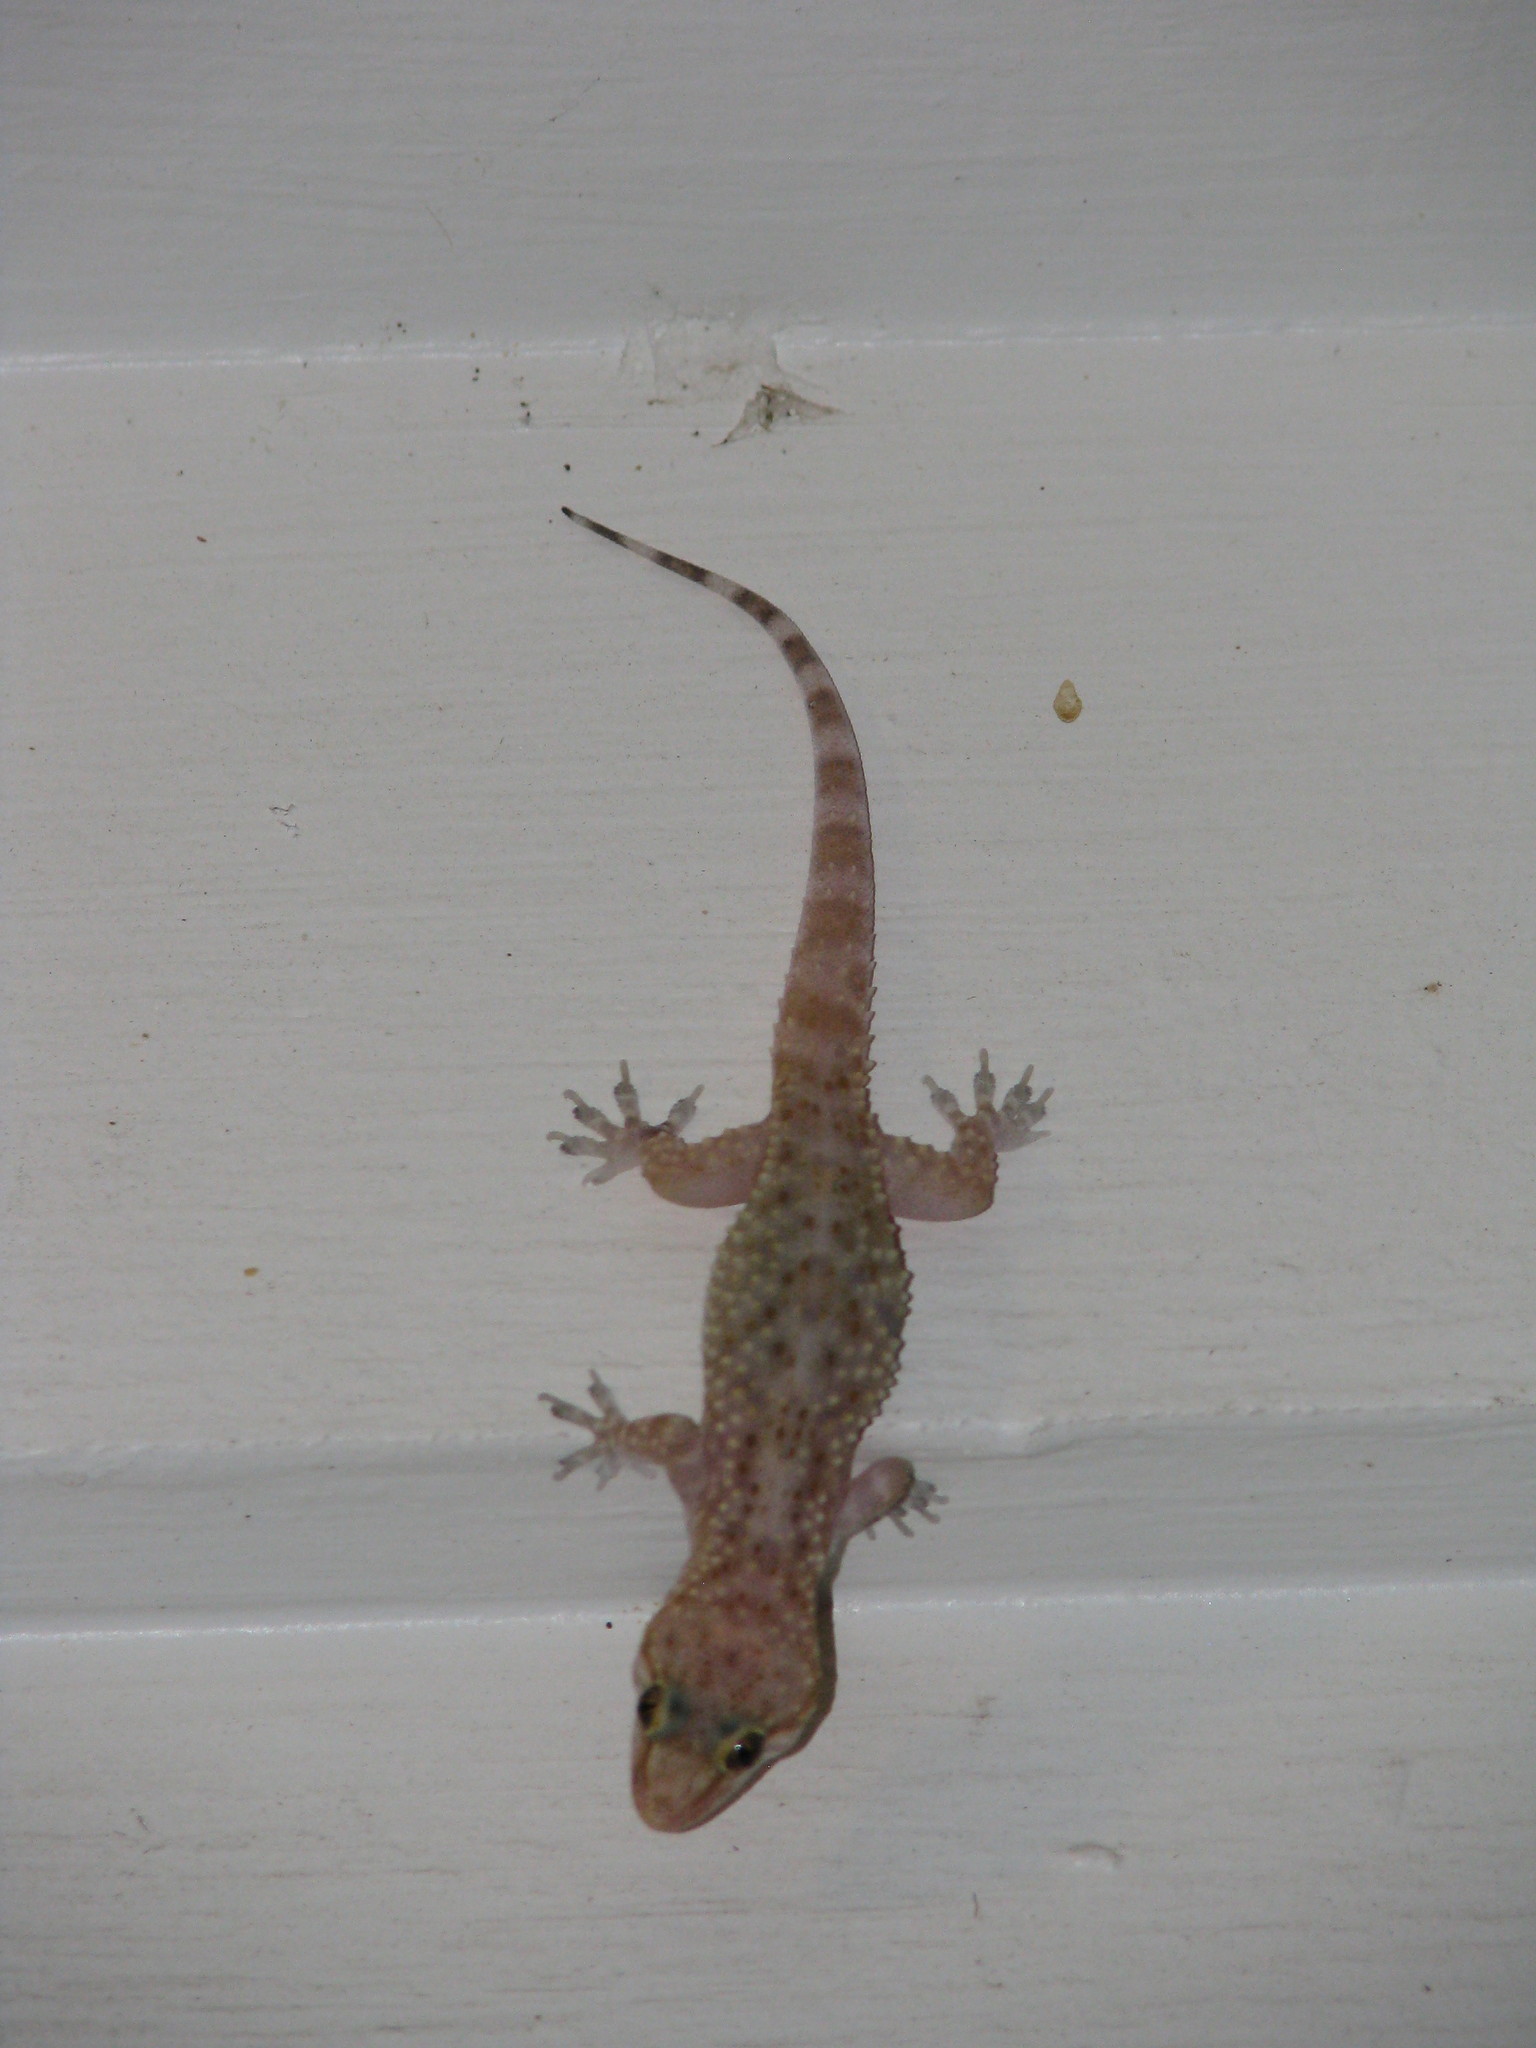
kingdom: Animalia
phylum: Chordata
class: Squamata
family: Gekkonidae
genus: Hemidactylus
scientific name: Hemidactylus turcicus
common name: Turkish gecko
